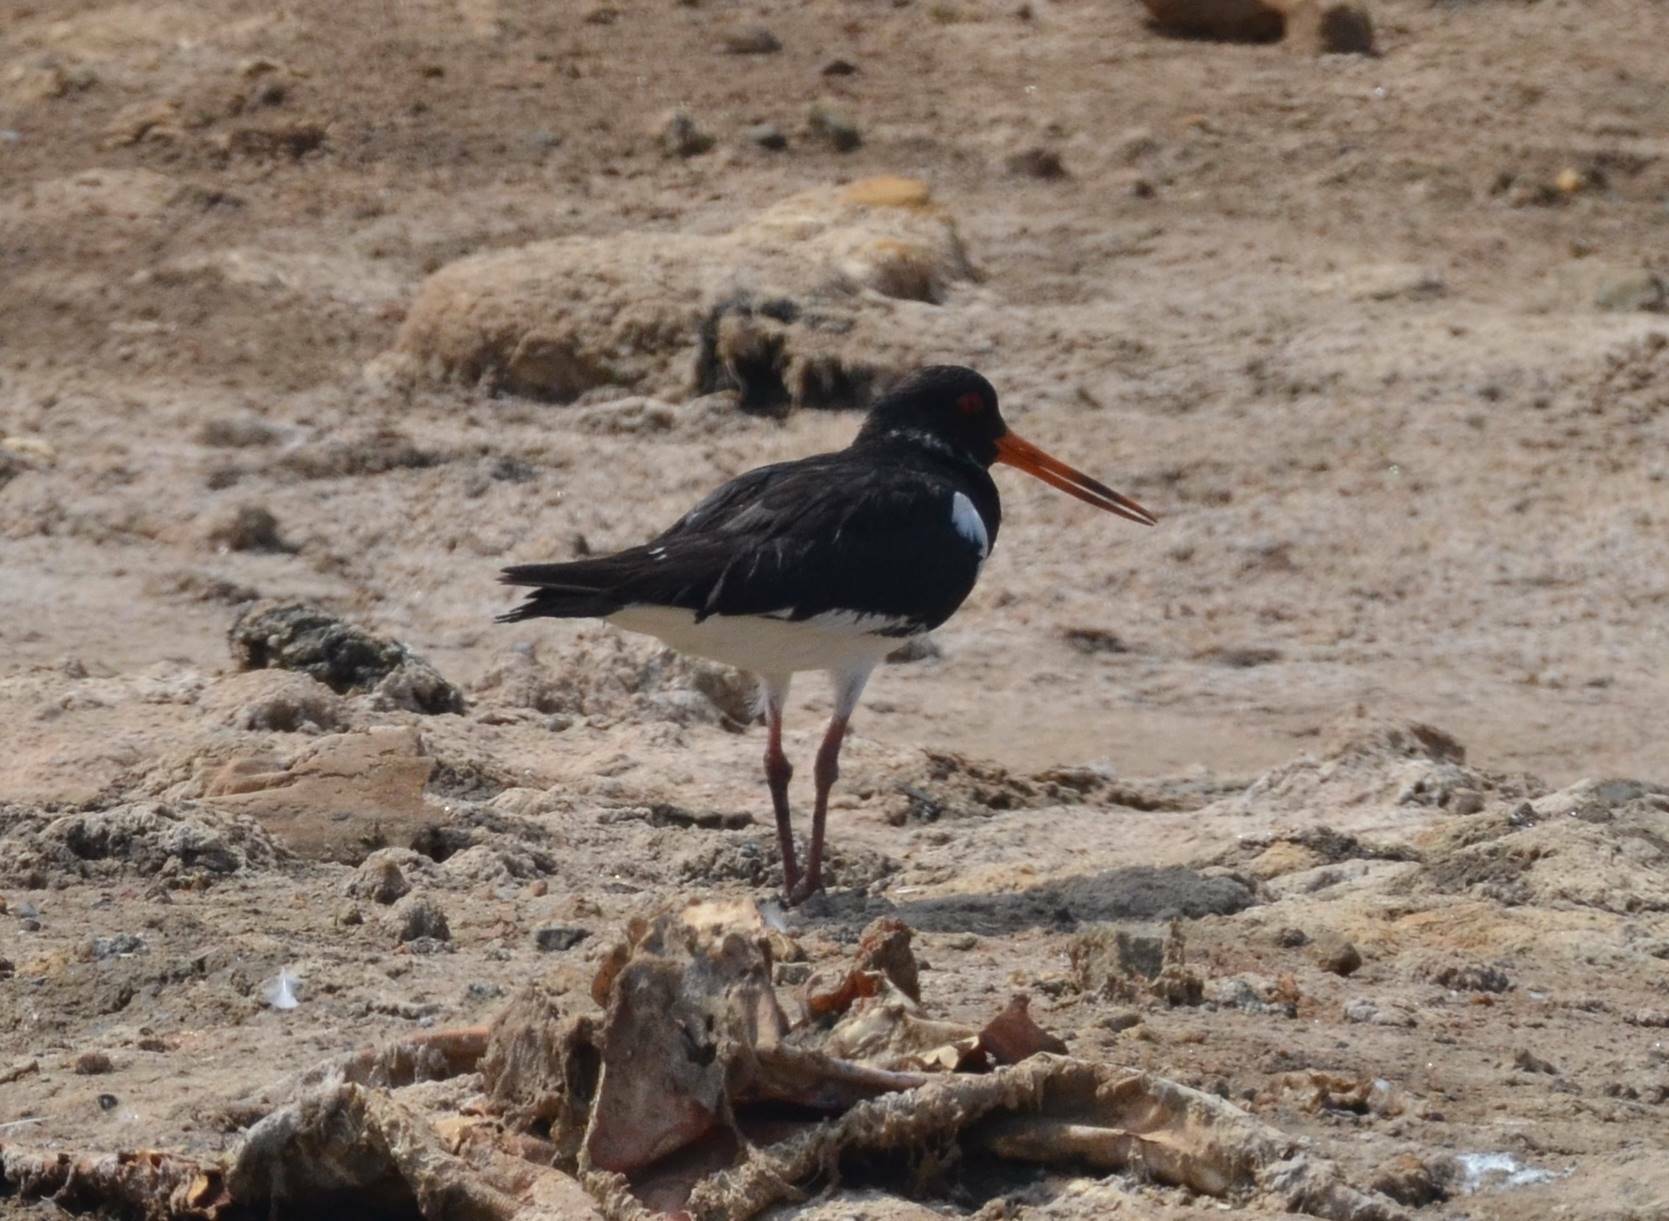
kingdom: Animalia
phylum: Chordata
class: Aves
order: Charadriiformes
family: Haematopodidae
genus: Haematopus
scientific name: Haematopus ostralegus
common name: Eurasian oystercatcher
